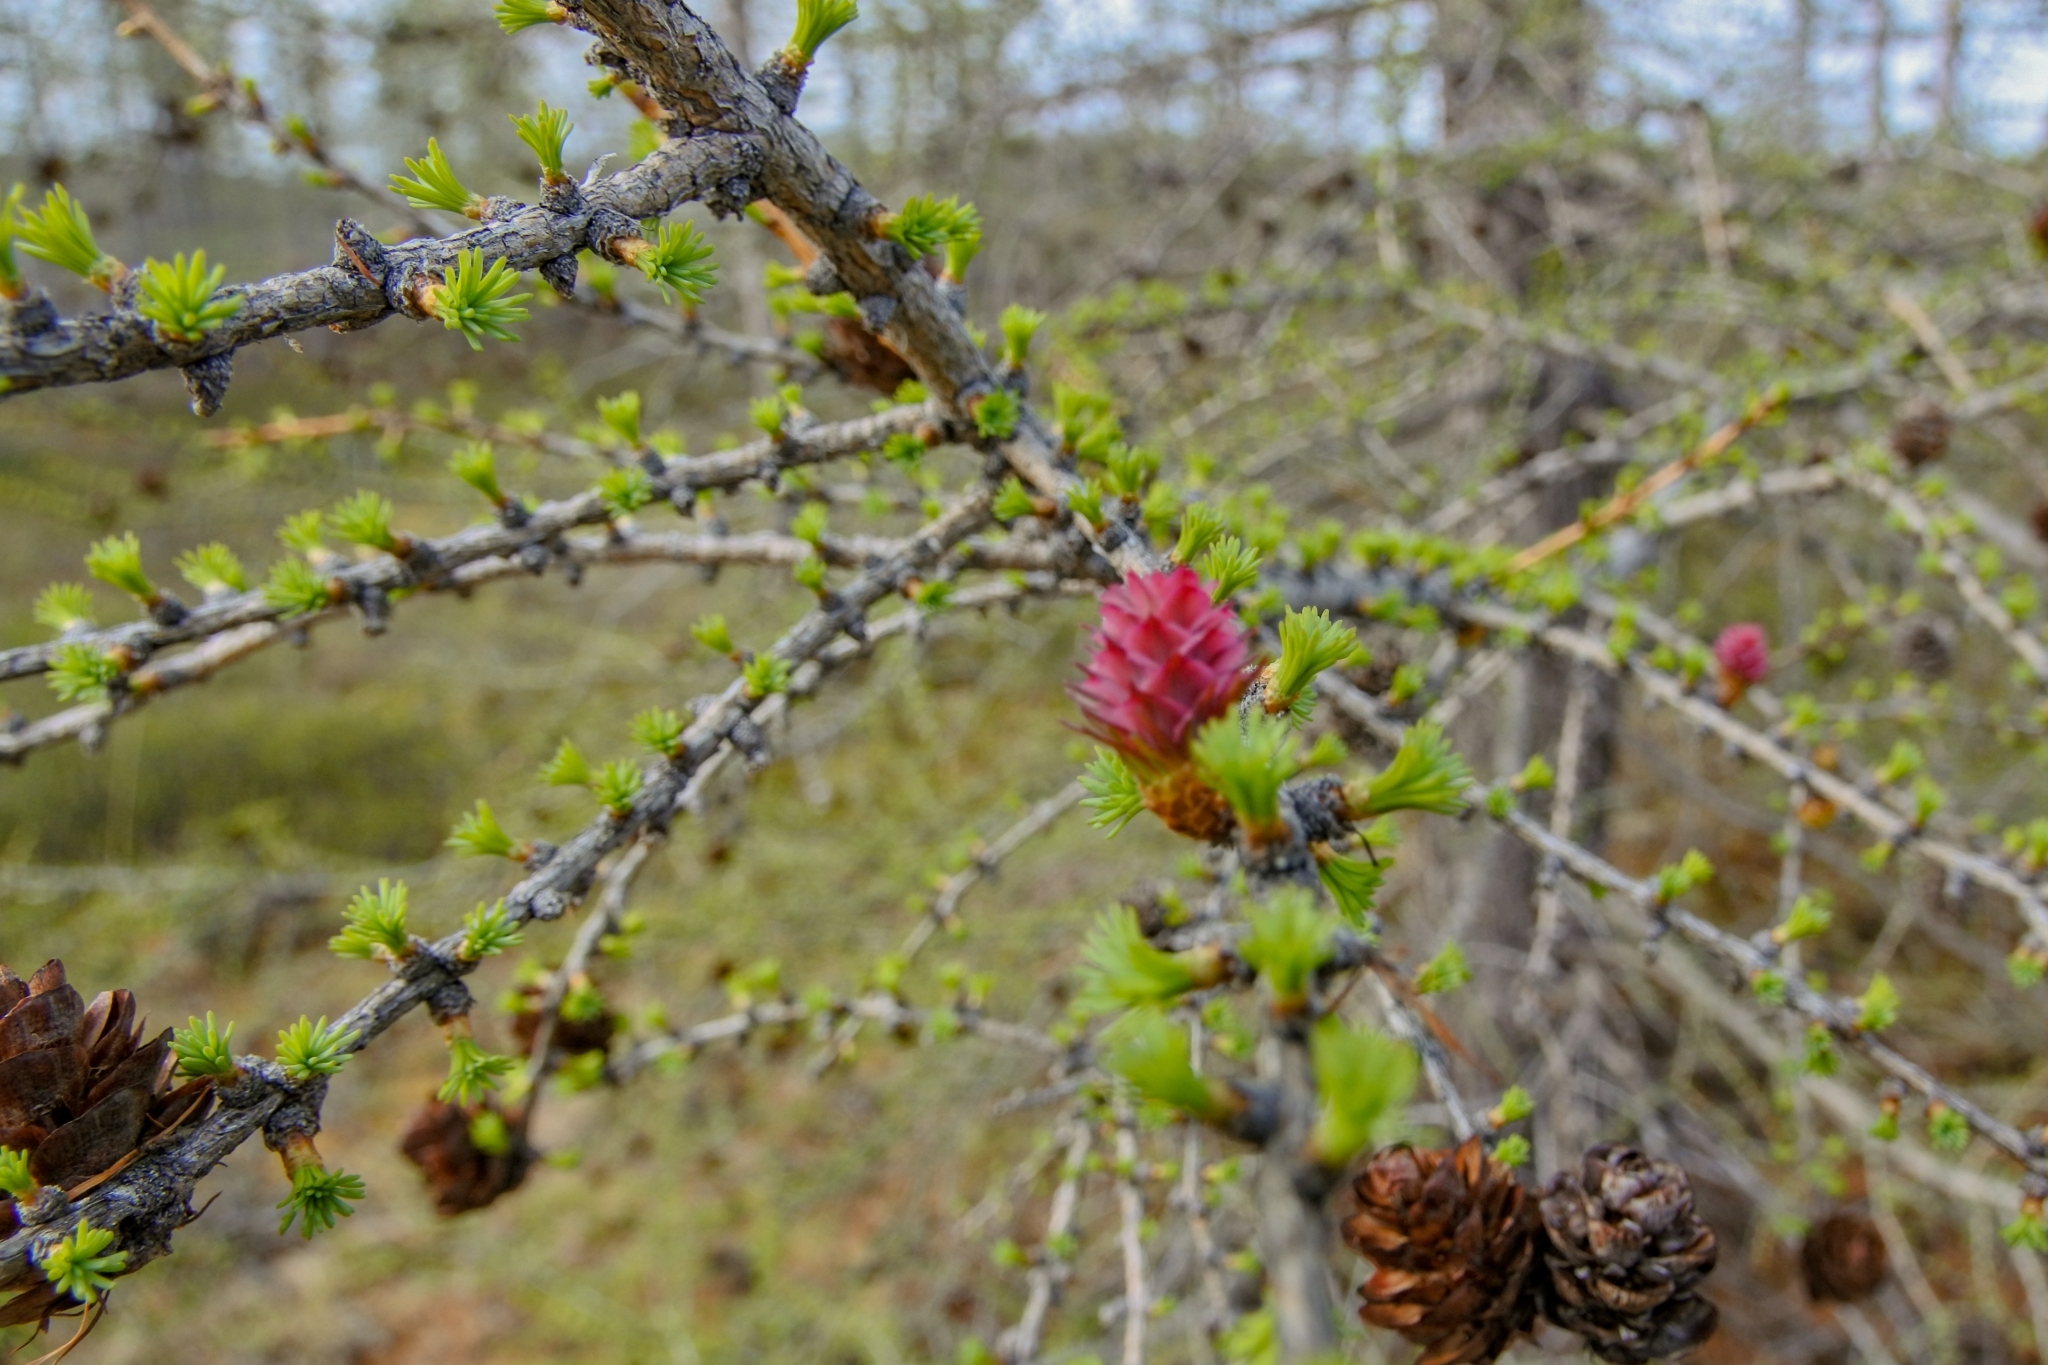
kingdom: Plantae
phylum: Tracheophyta
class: Pinopsida
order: Pinales
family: Pinaceae
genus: Larix
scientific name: Larix sibirica
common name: Siberian larch
